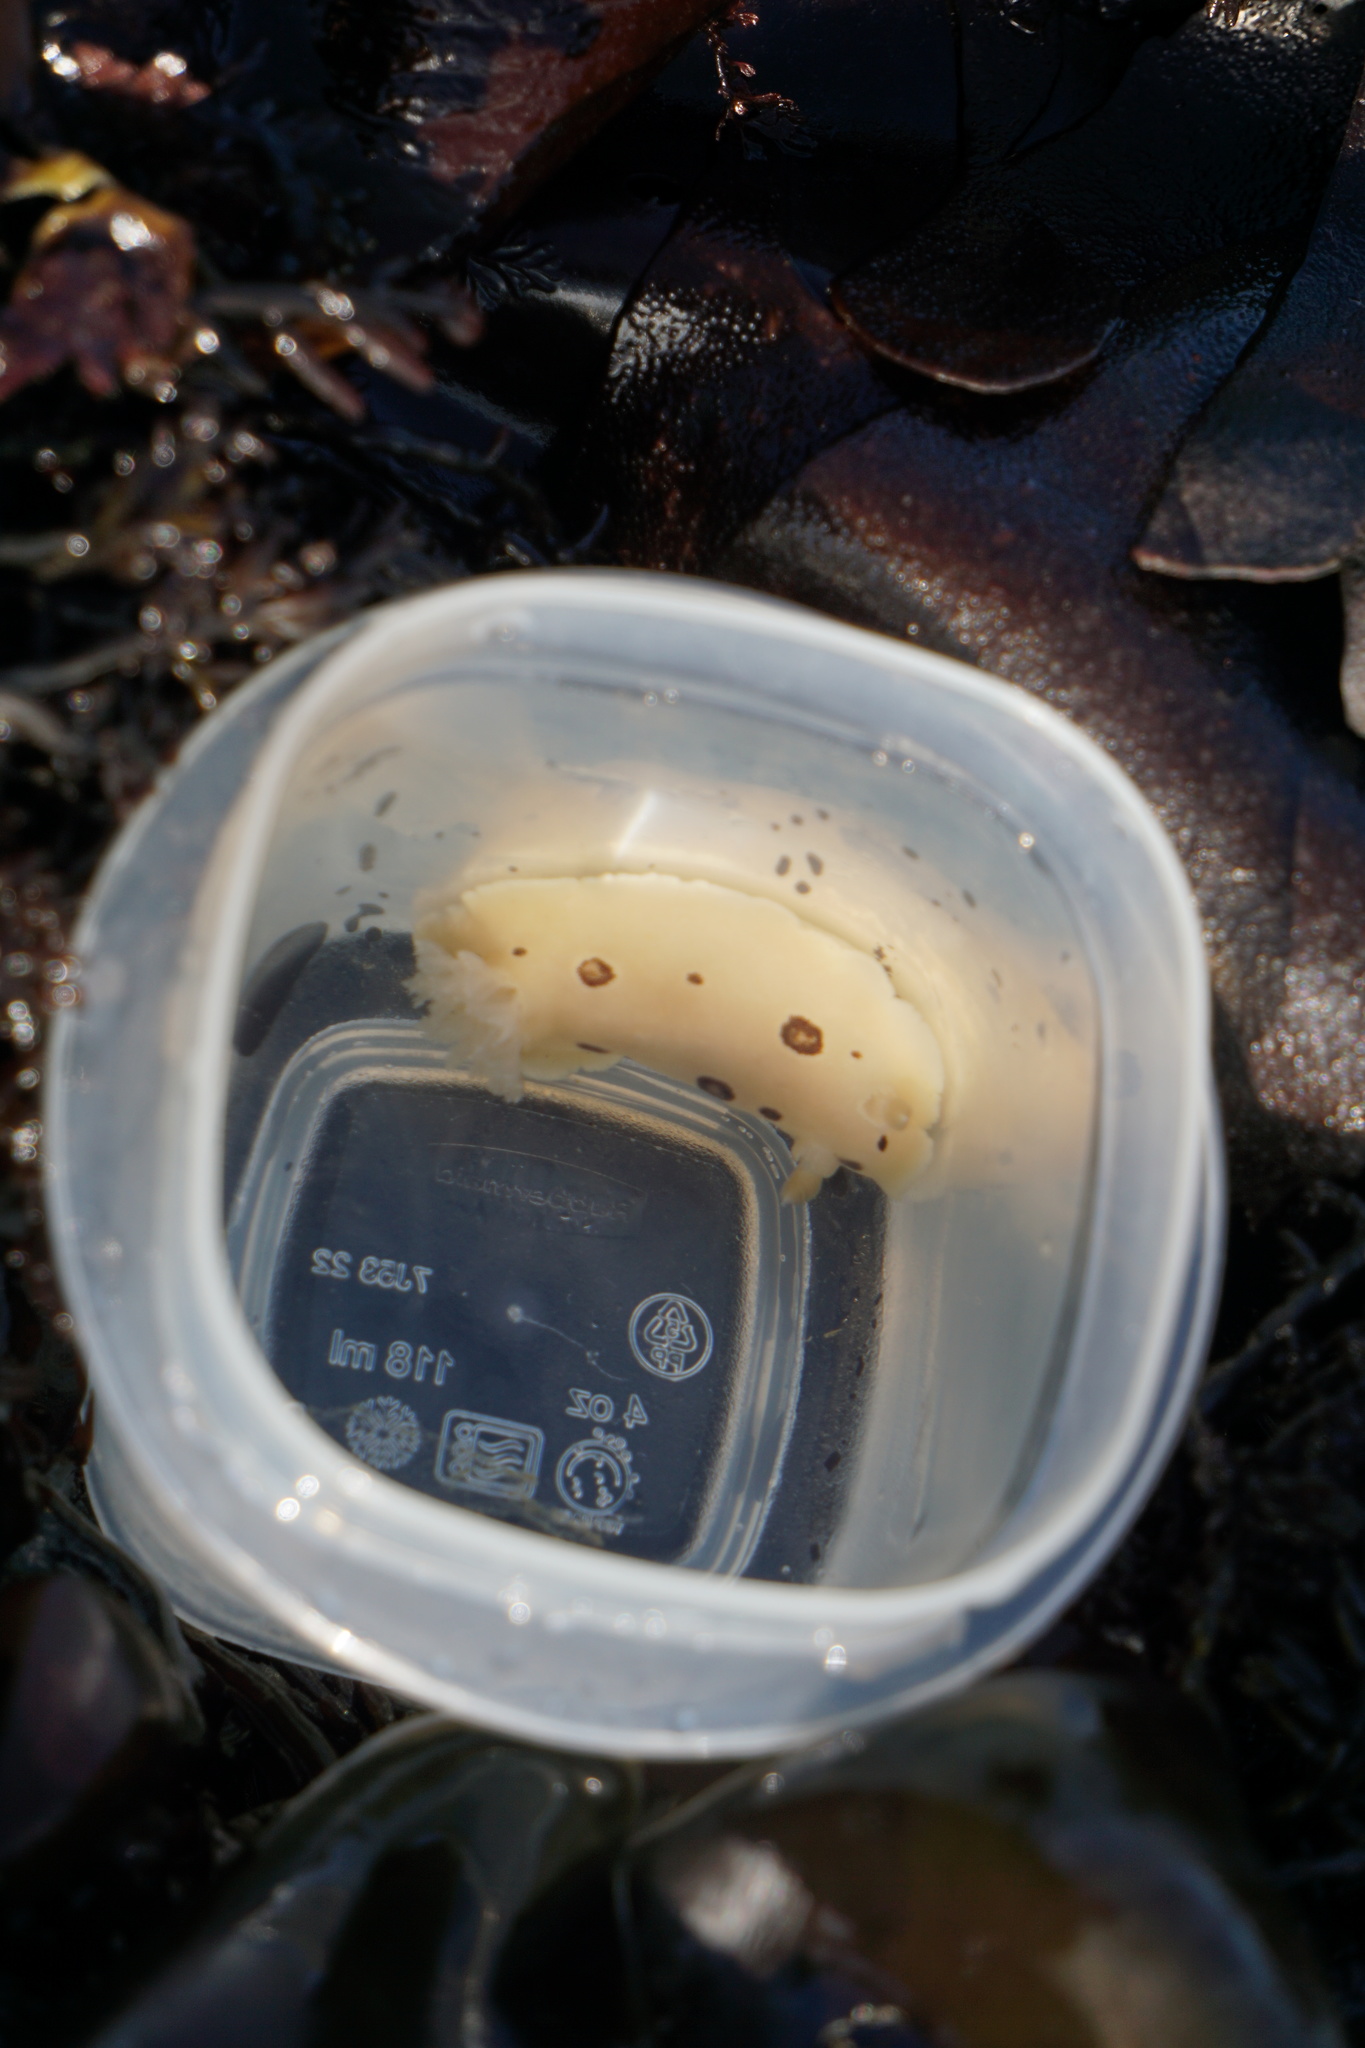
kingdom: Animalia
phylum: Mollusca
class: Gastropoda
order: Nudibranchia
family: Discodorididae
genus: Diaulula
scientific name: Diaulula sandiegensis
